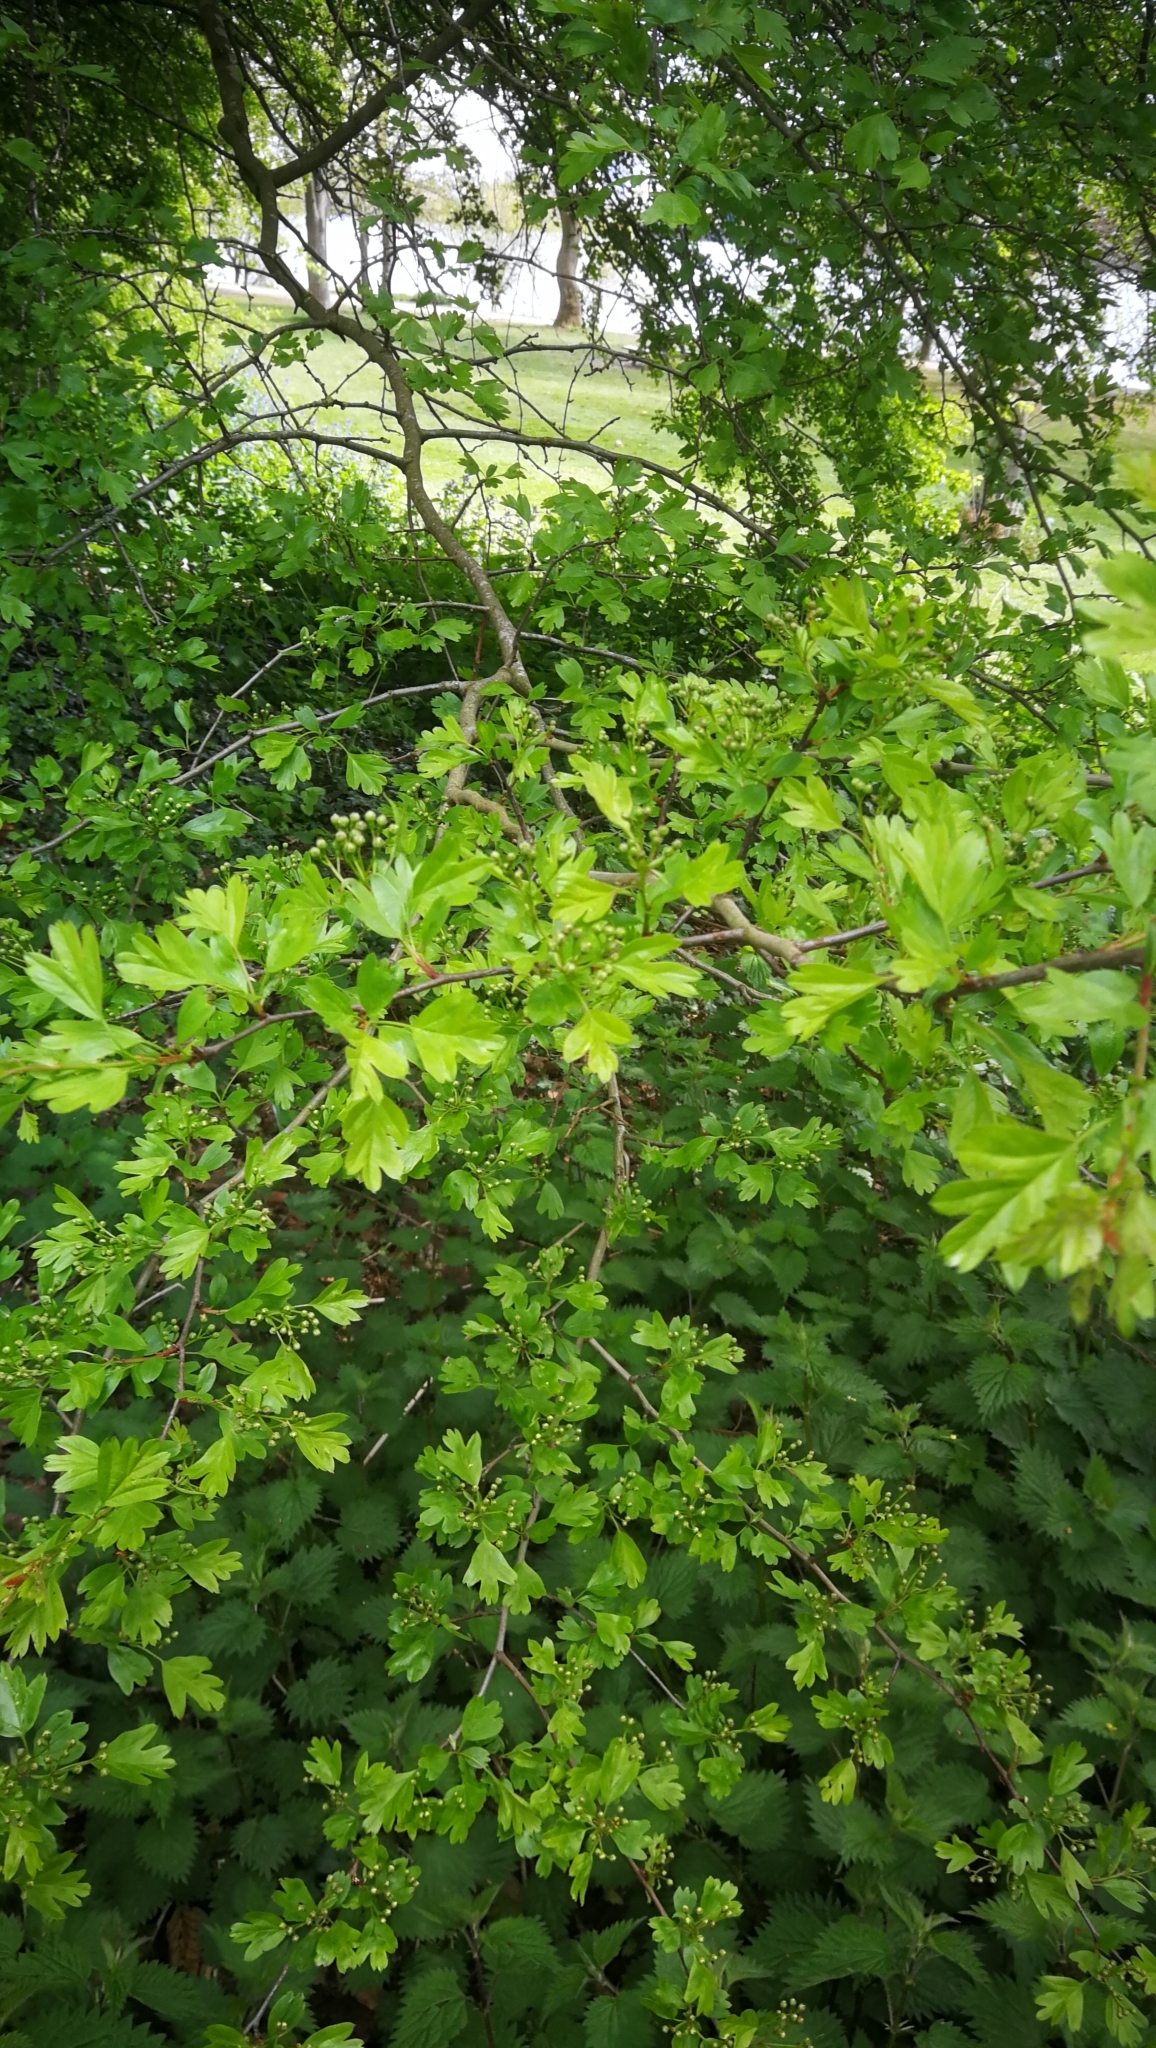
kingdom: Plantae
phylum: Tracheophyta
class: Magnoliopsida
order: Rosales
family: Rosaceae
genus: Crataegus
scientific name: Crataegus monogyna
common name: Hawthorn
